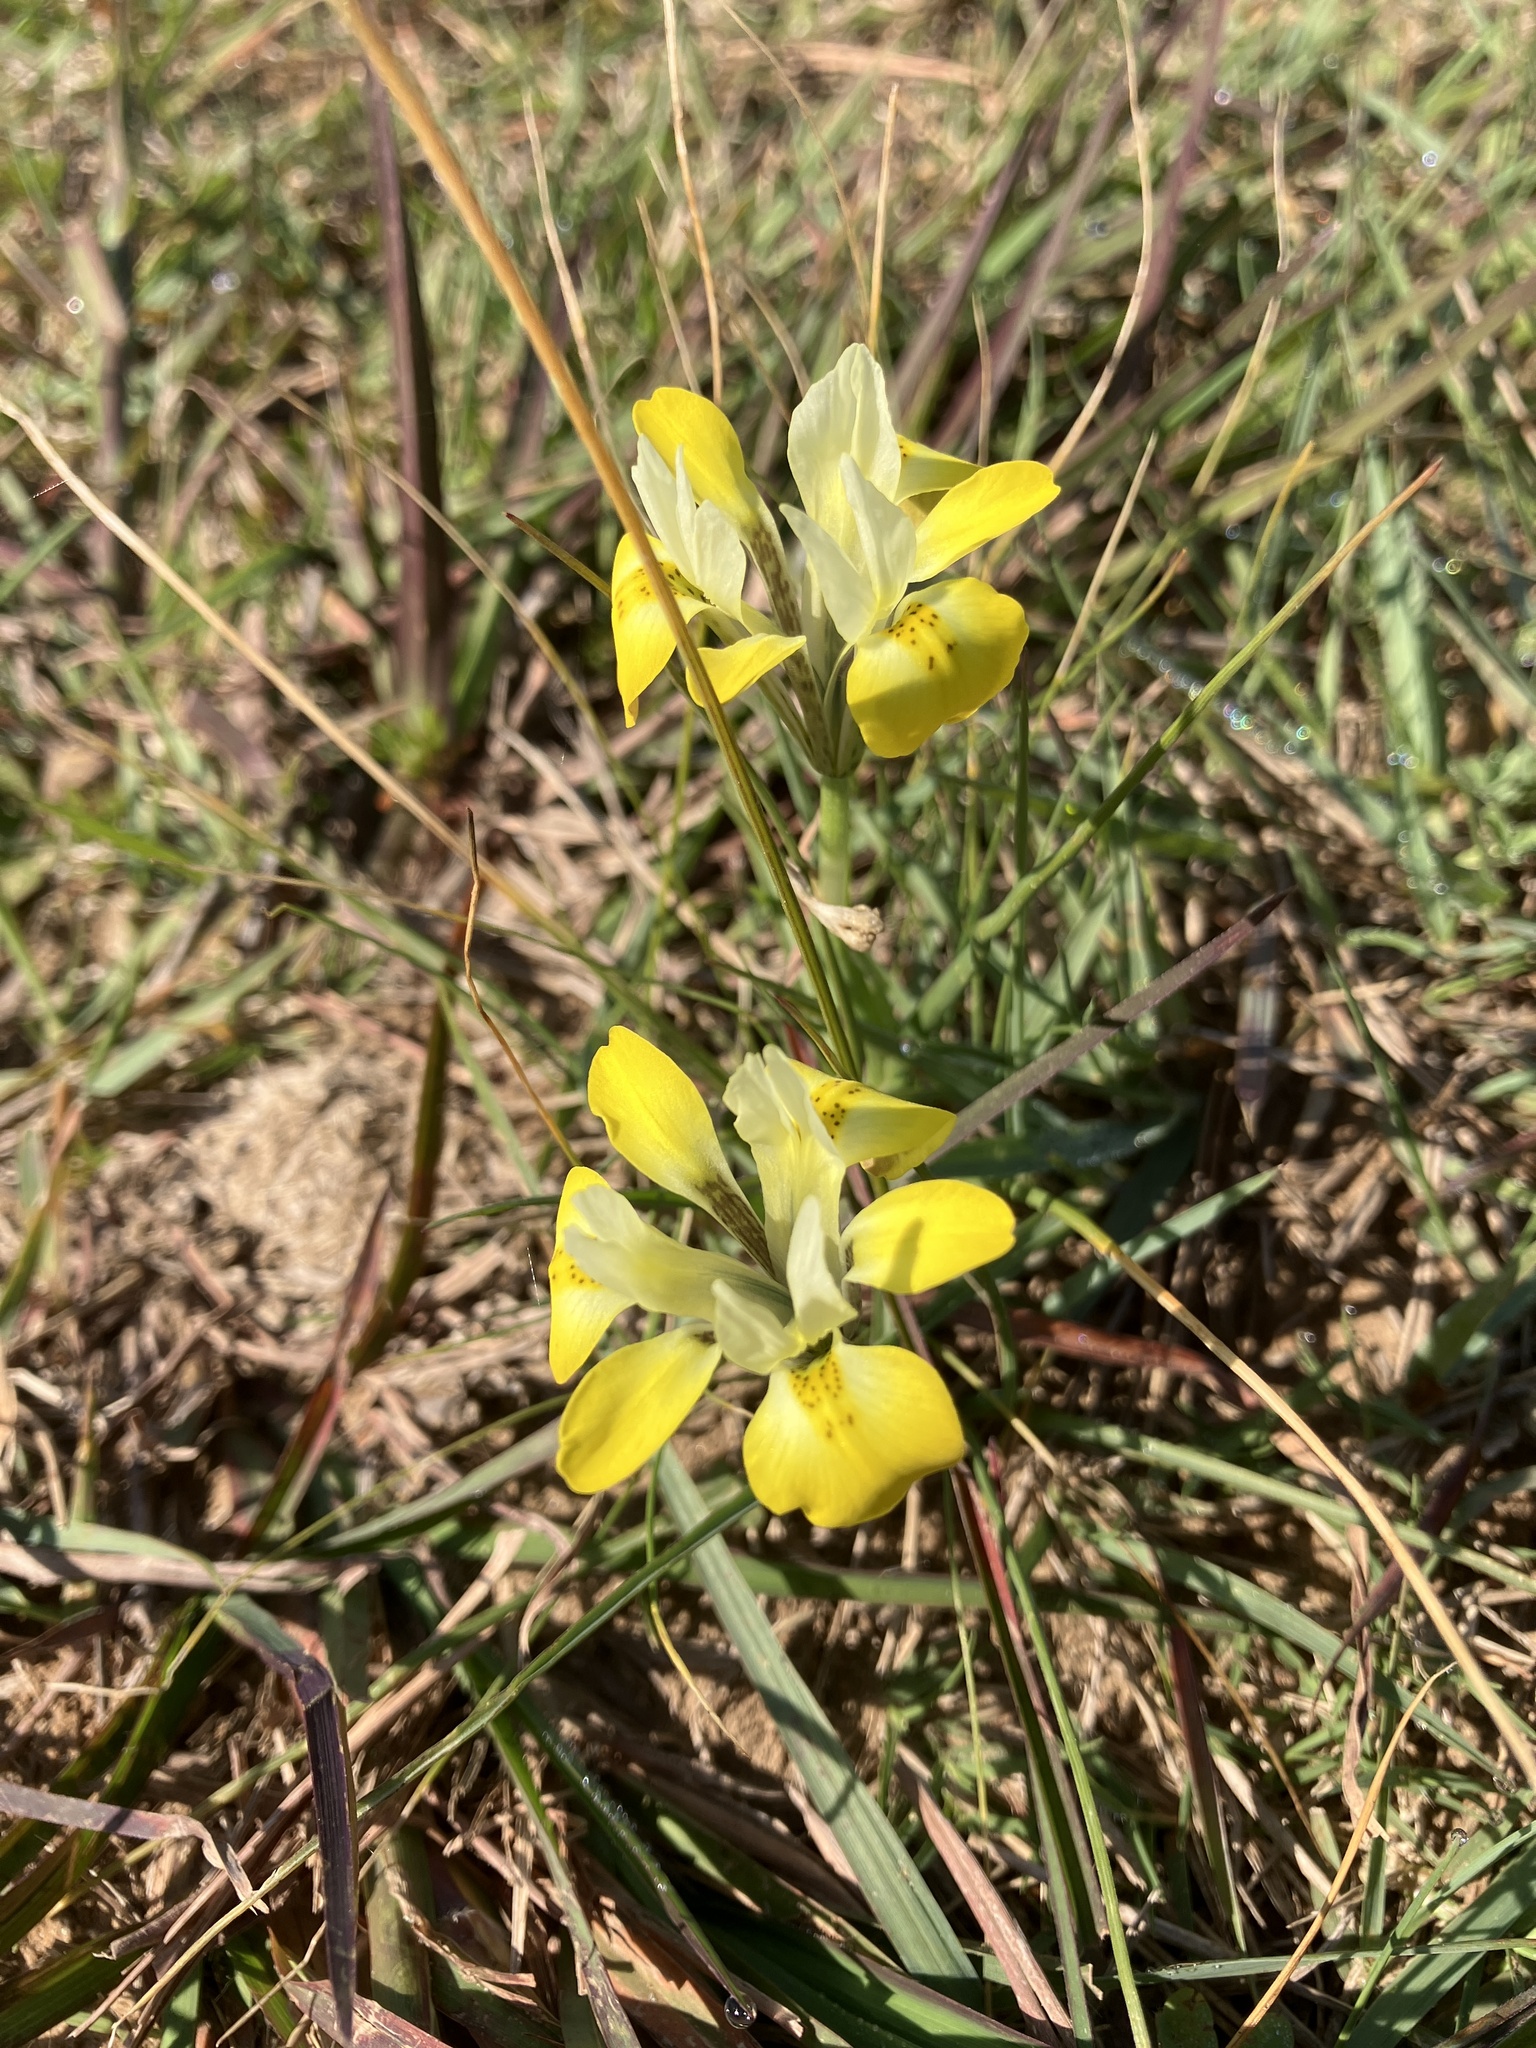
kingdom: Plantae
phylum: Tracheophyta
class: Liliopsida
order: Asparagales
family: Iridaceae
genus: Moraea
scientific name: Moraea macronyx
